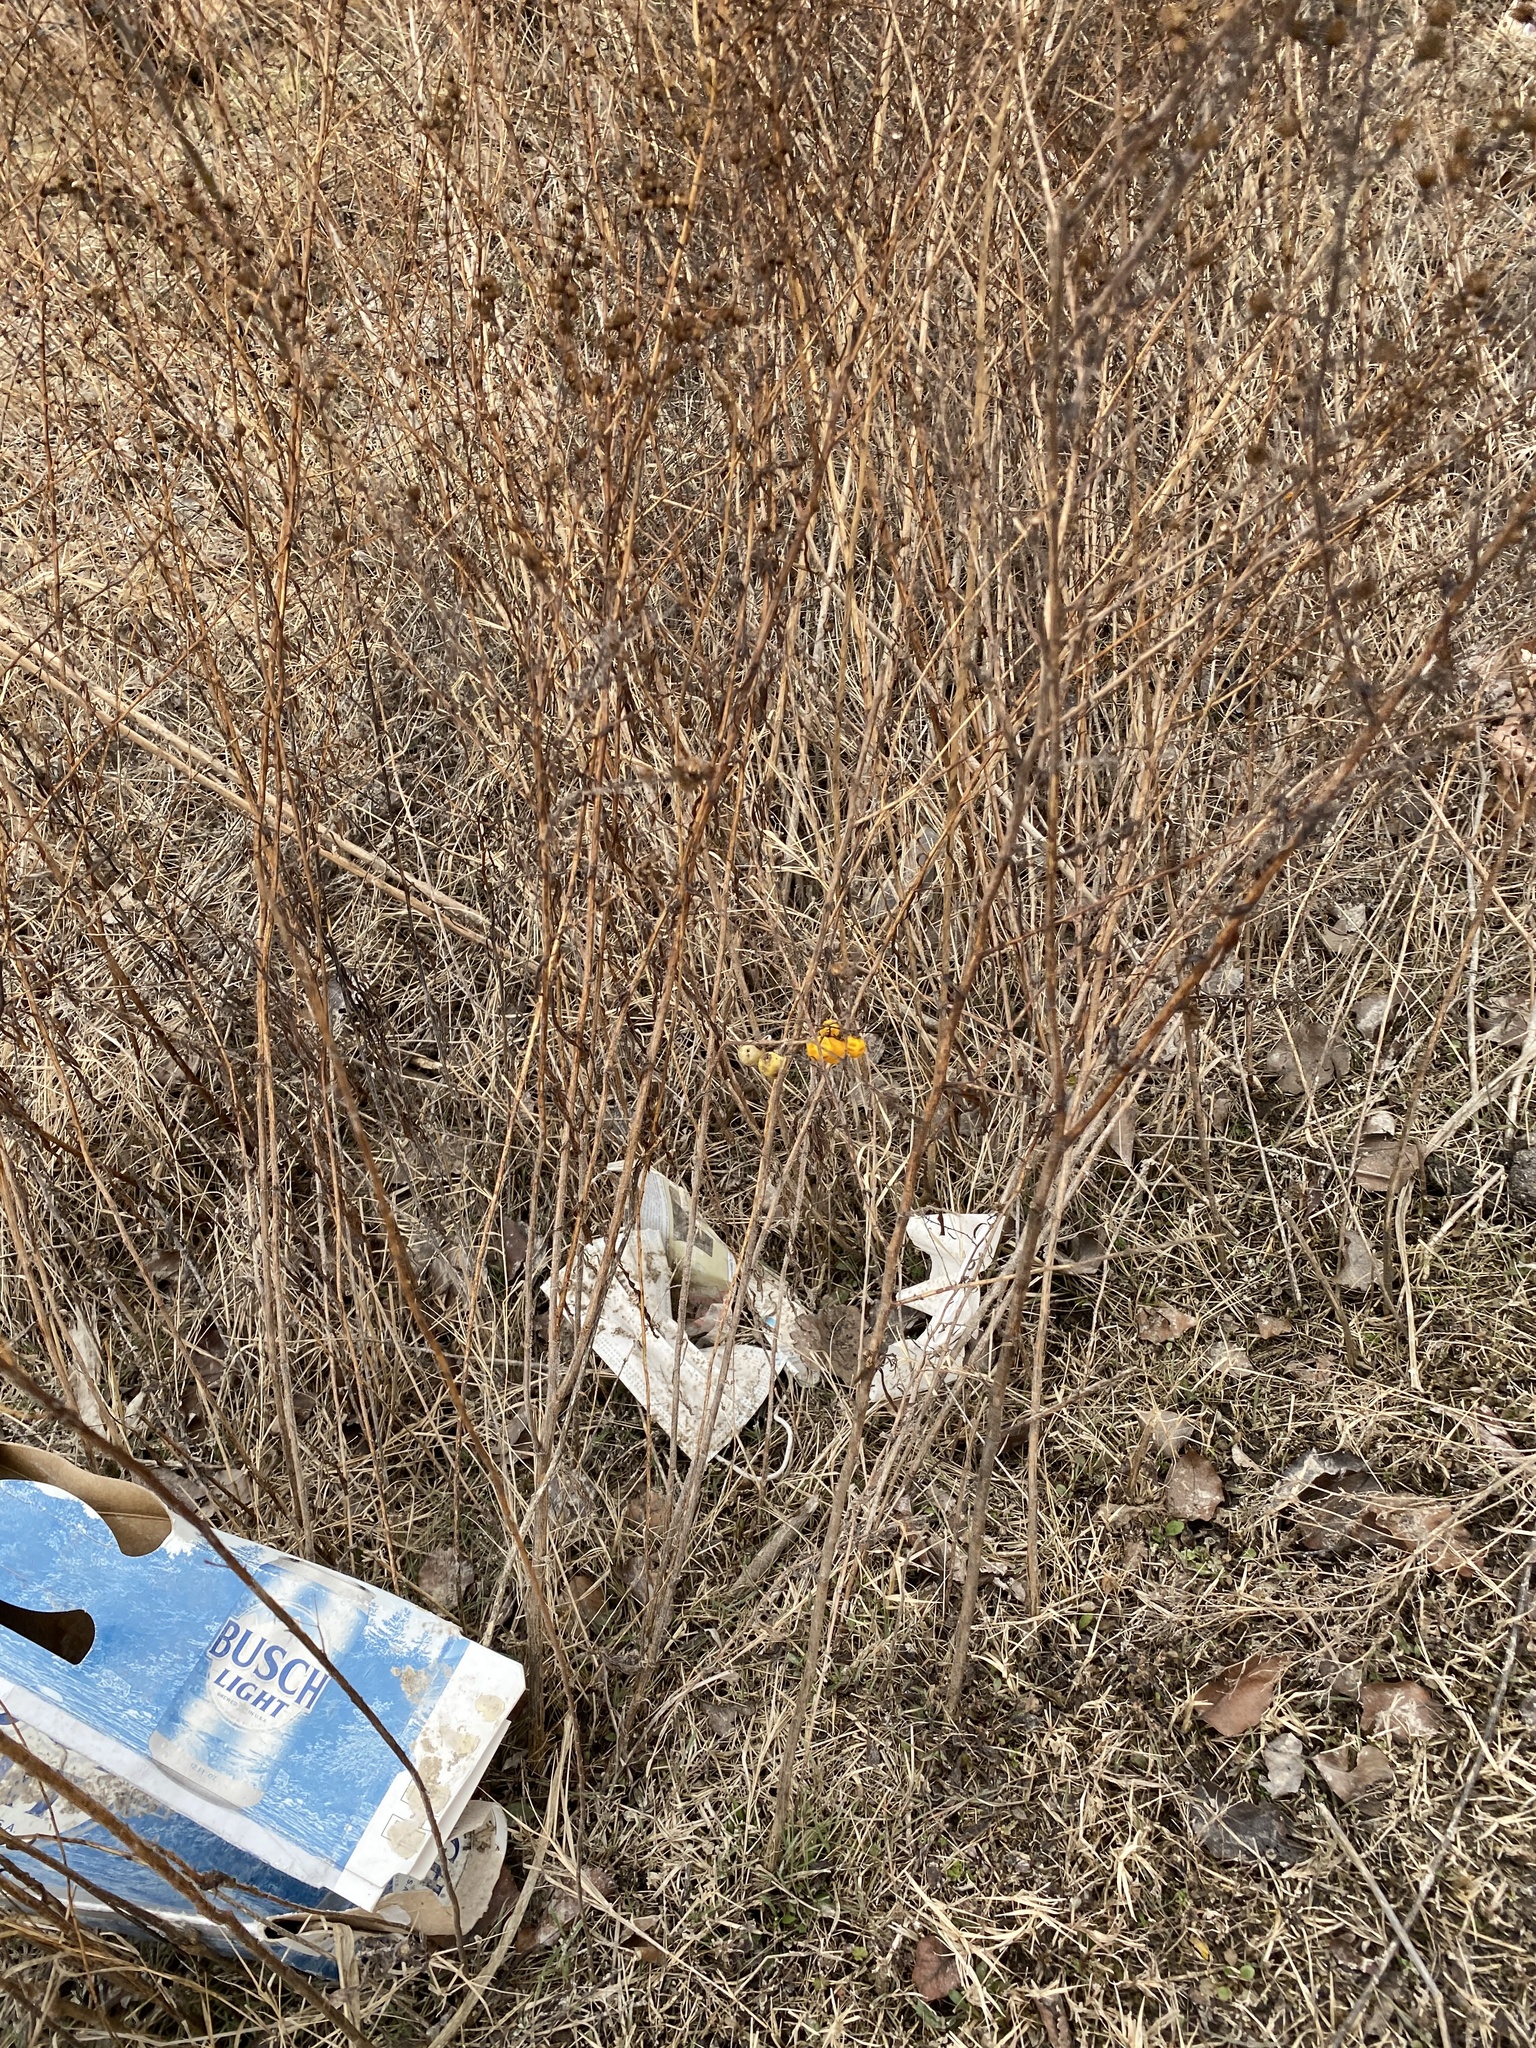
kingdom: Plantae
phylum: Tracheophyta
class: Magnoliopsida
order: Solanales
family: Solanaceae
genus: Solanum
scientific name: Solanum carolinense
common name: Horse-nettle
